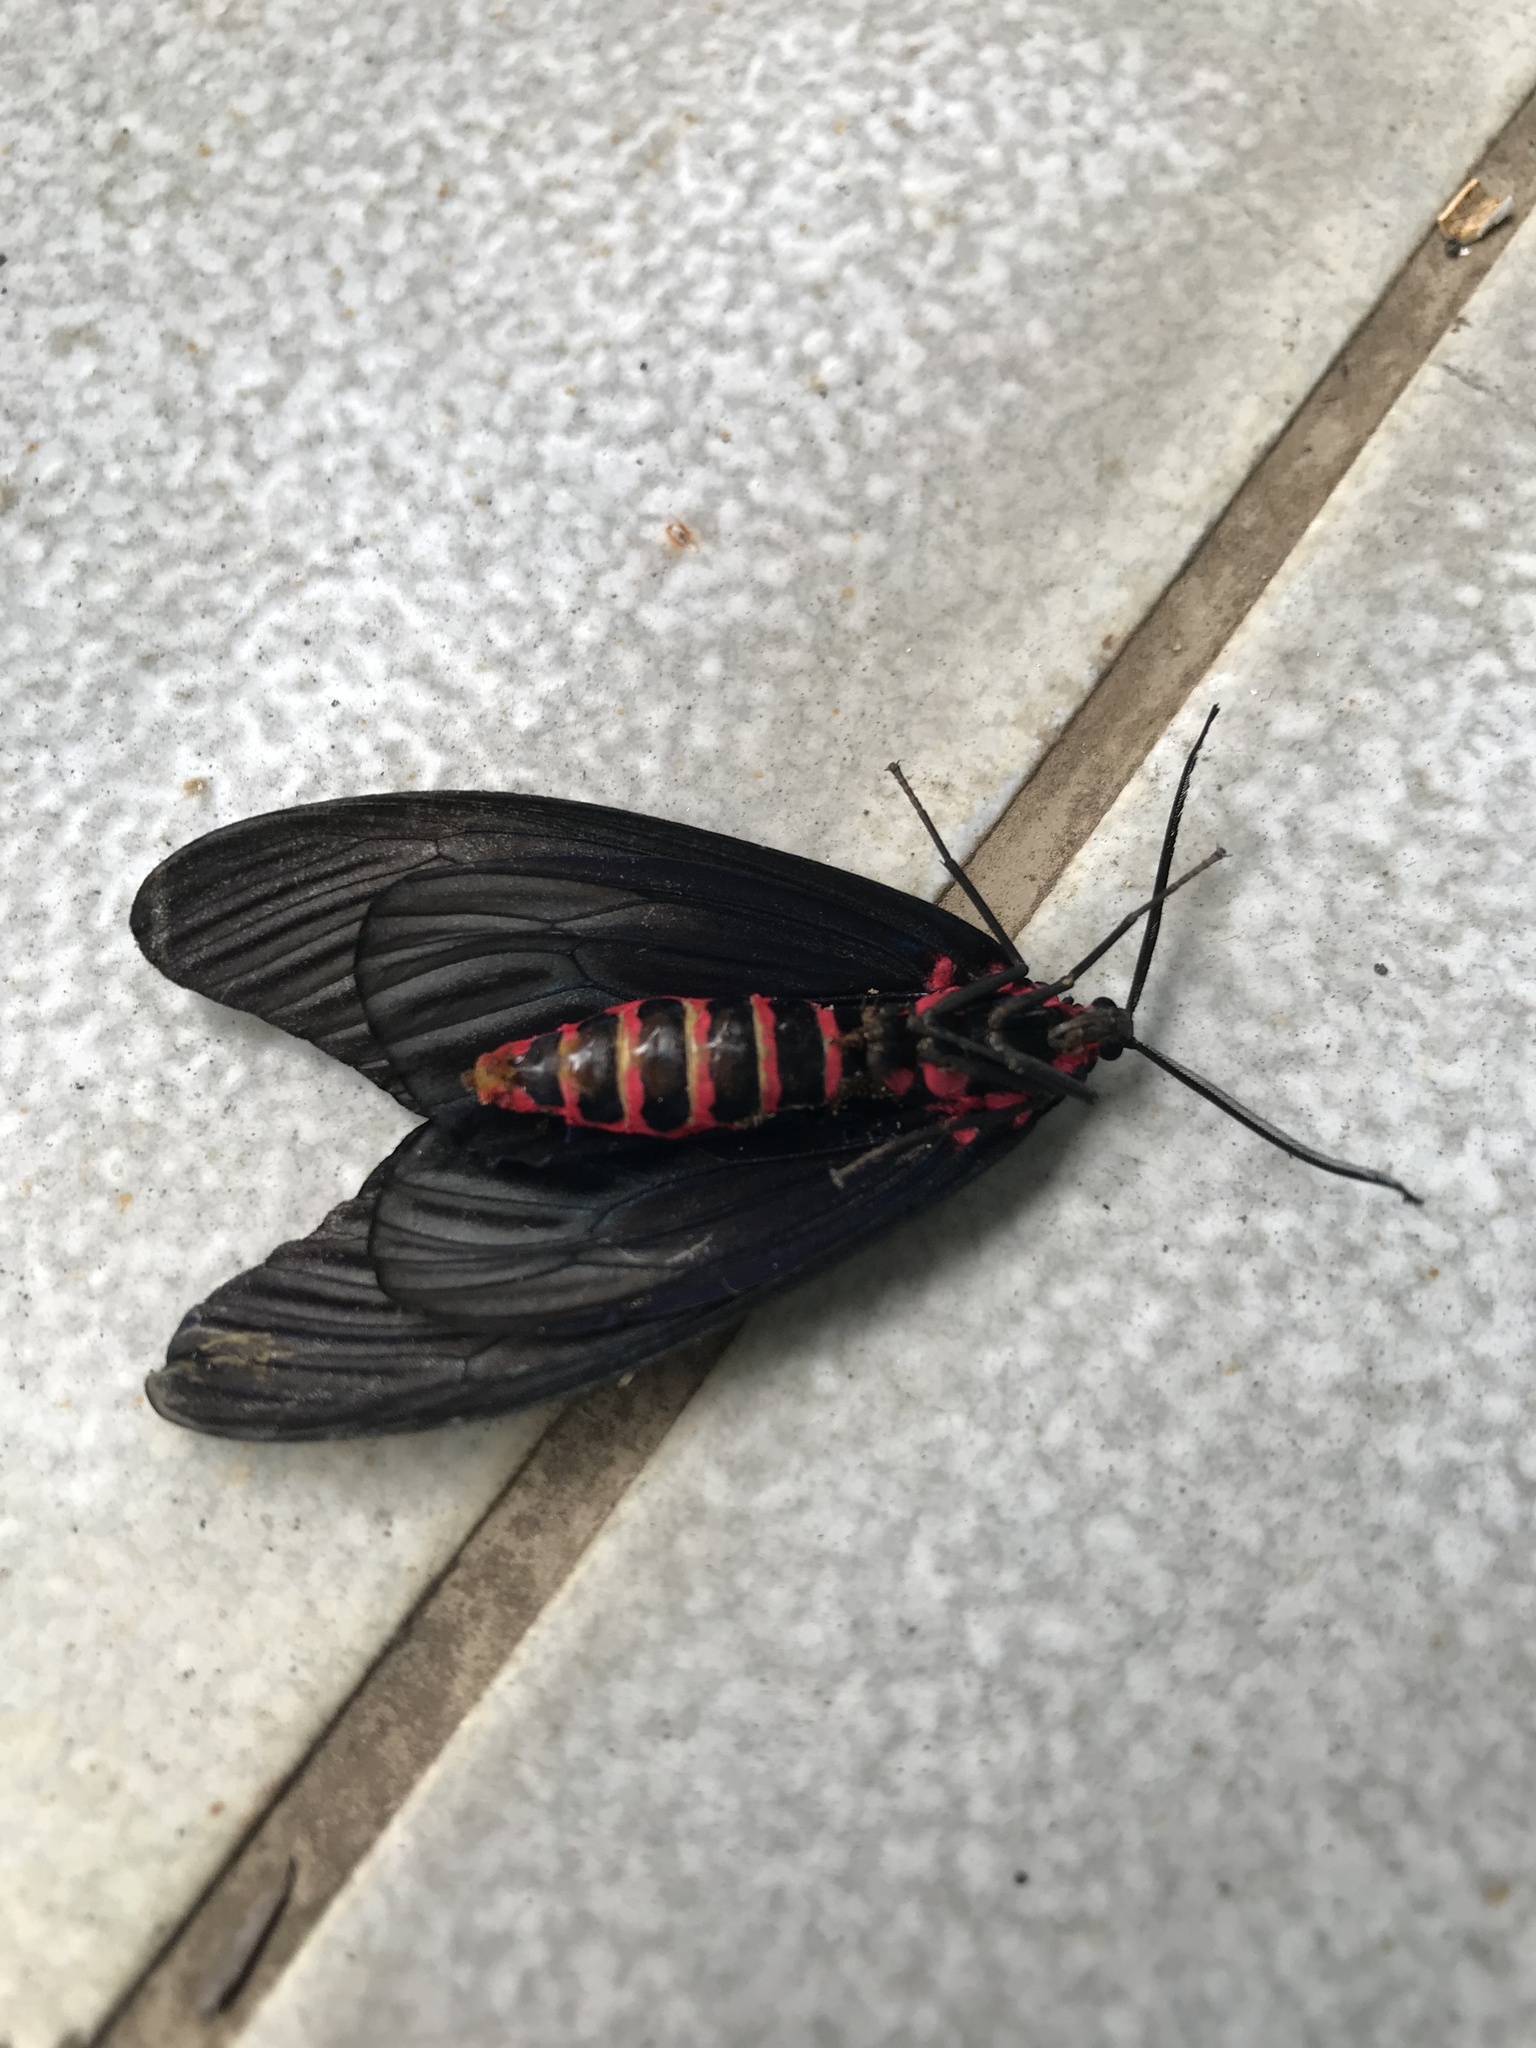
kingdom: Animalia
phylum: Arthropoda
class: Insecta
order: Lepidoptera
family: Zygaenidae
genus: Gynautocera
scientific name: Gynautocera rubriscutellata
